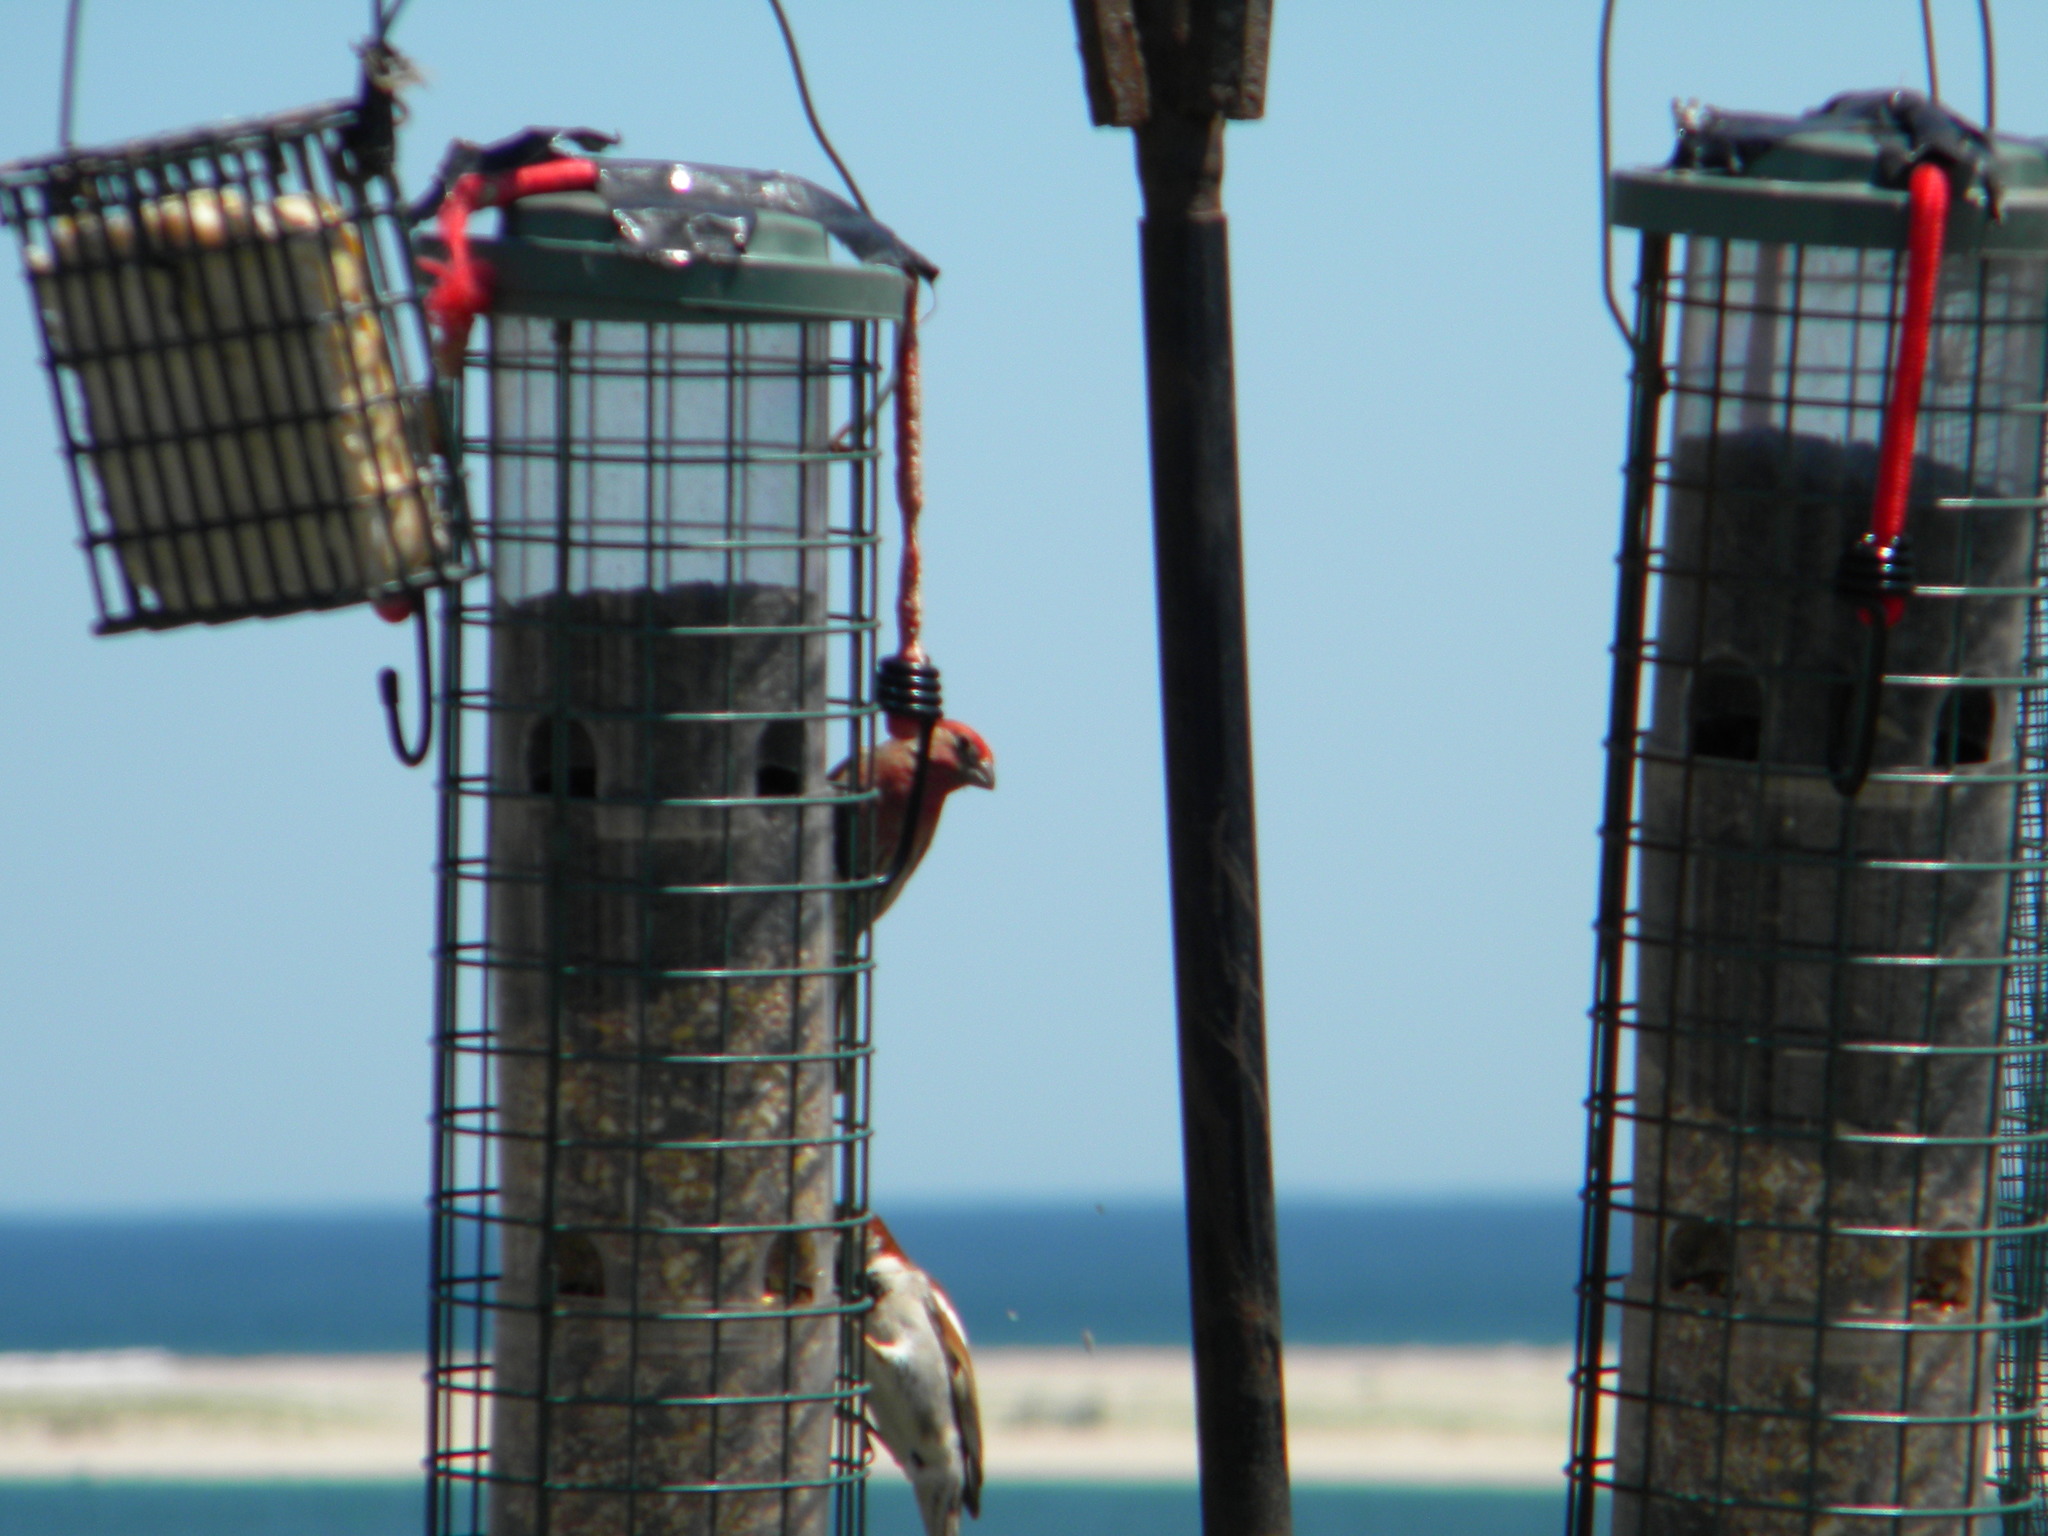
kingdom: Animalia
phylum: Chordata
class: Aves
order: Passeriformes
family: Fringillidae
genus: Haemorhous
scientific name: Haemorhous mexicanus
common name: House finch
